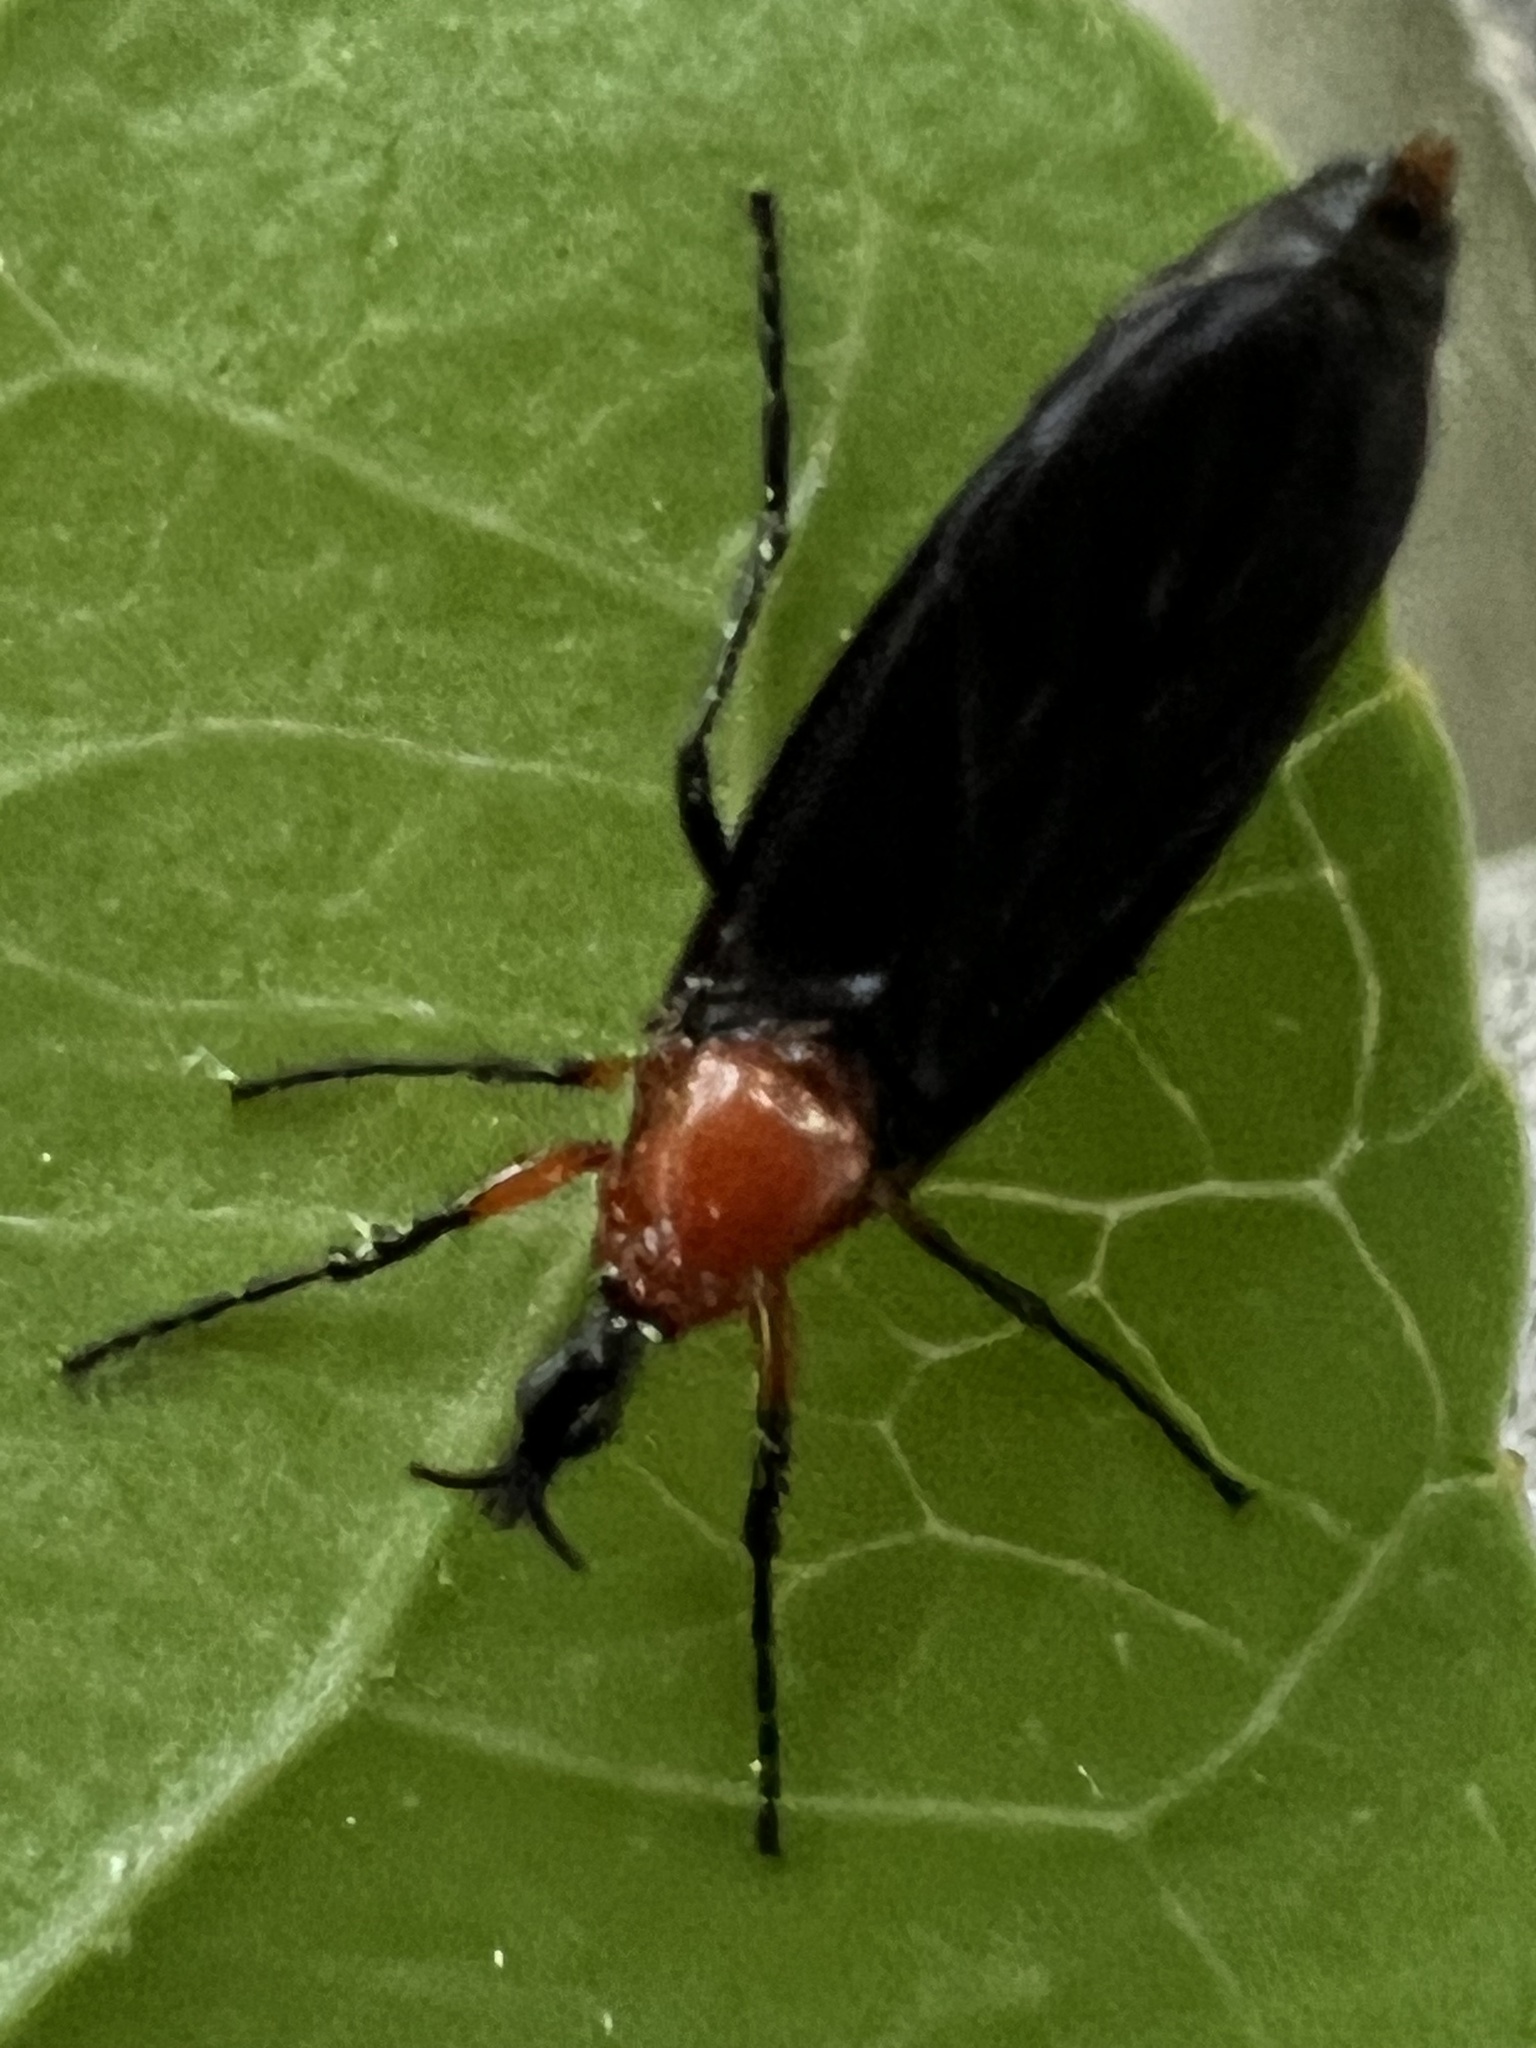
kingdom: Animalia
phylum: Arthropoda
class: Insecta
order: Diptera
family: Bibionidae
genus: Dilophus
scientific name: Dilophus spinipes
